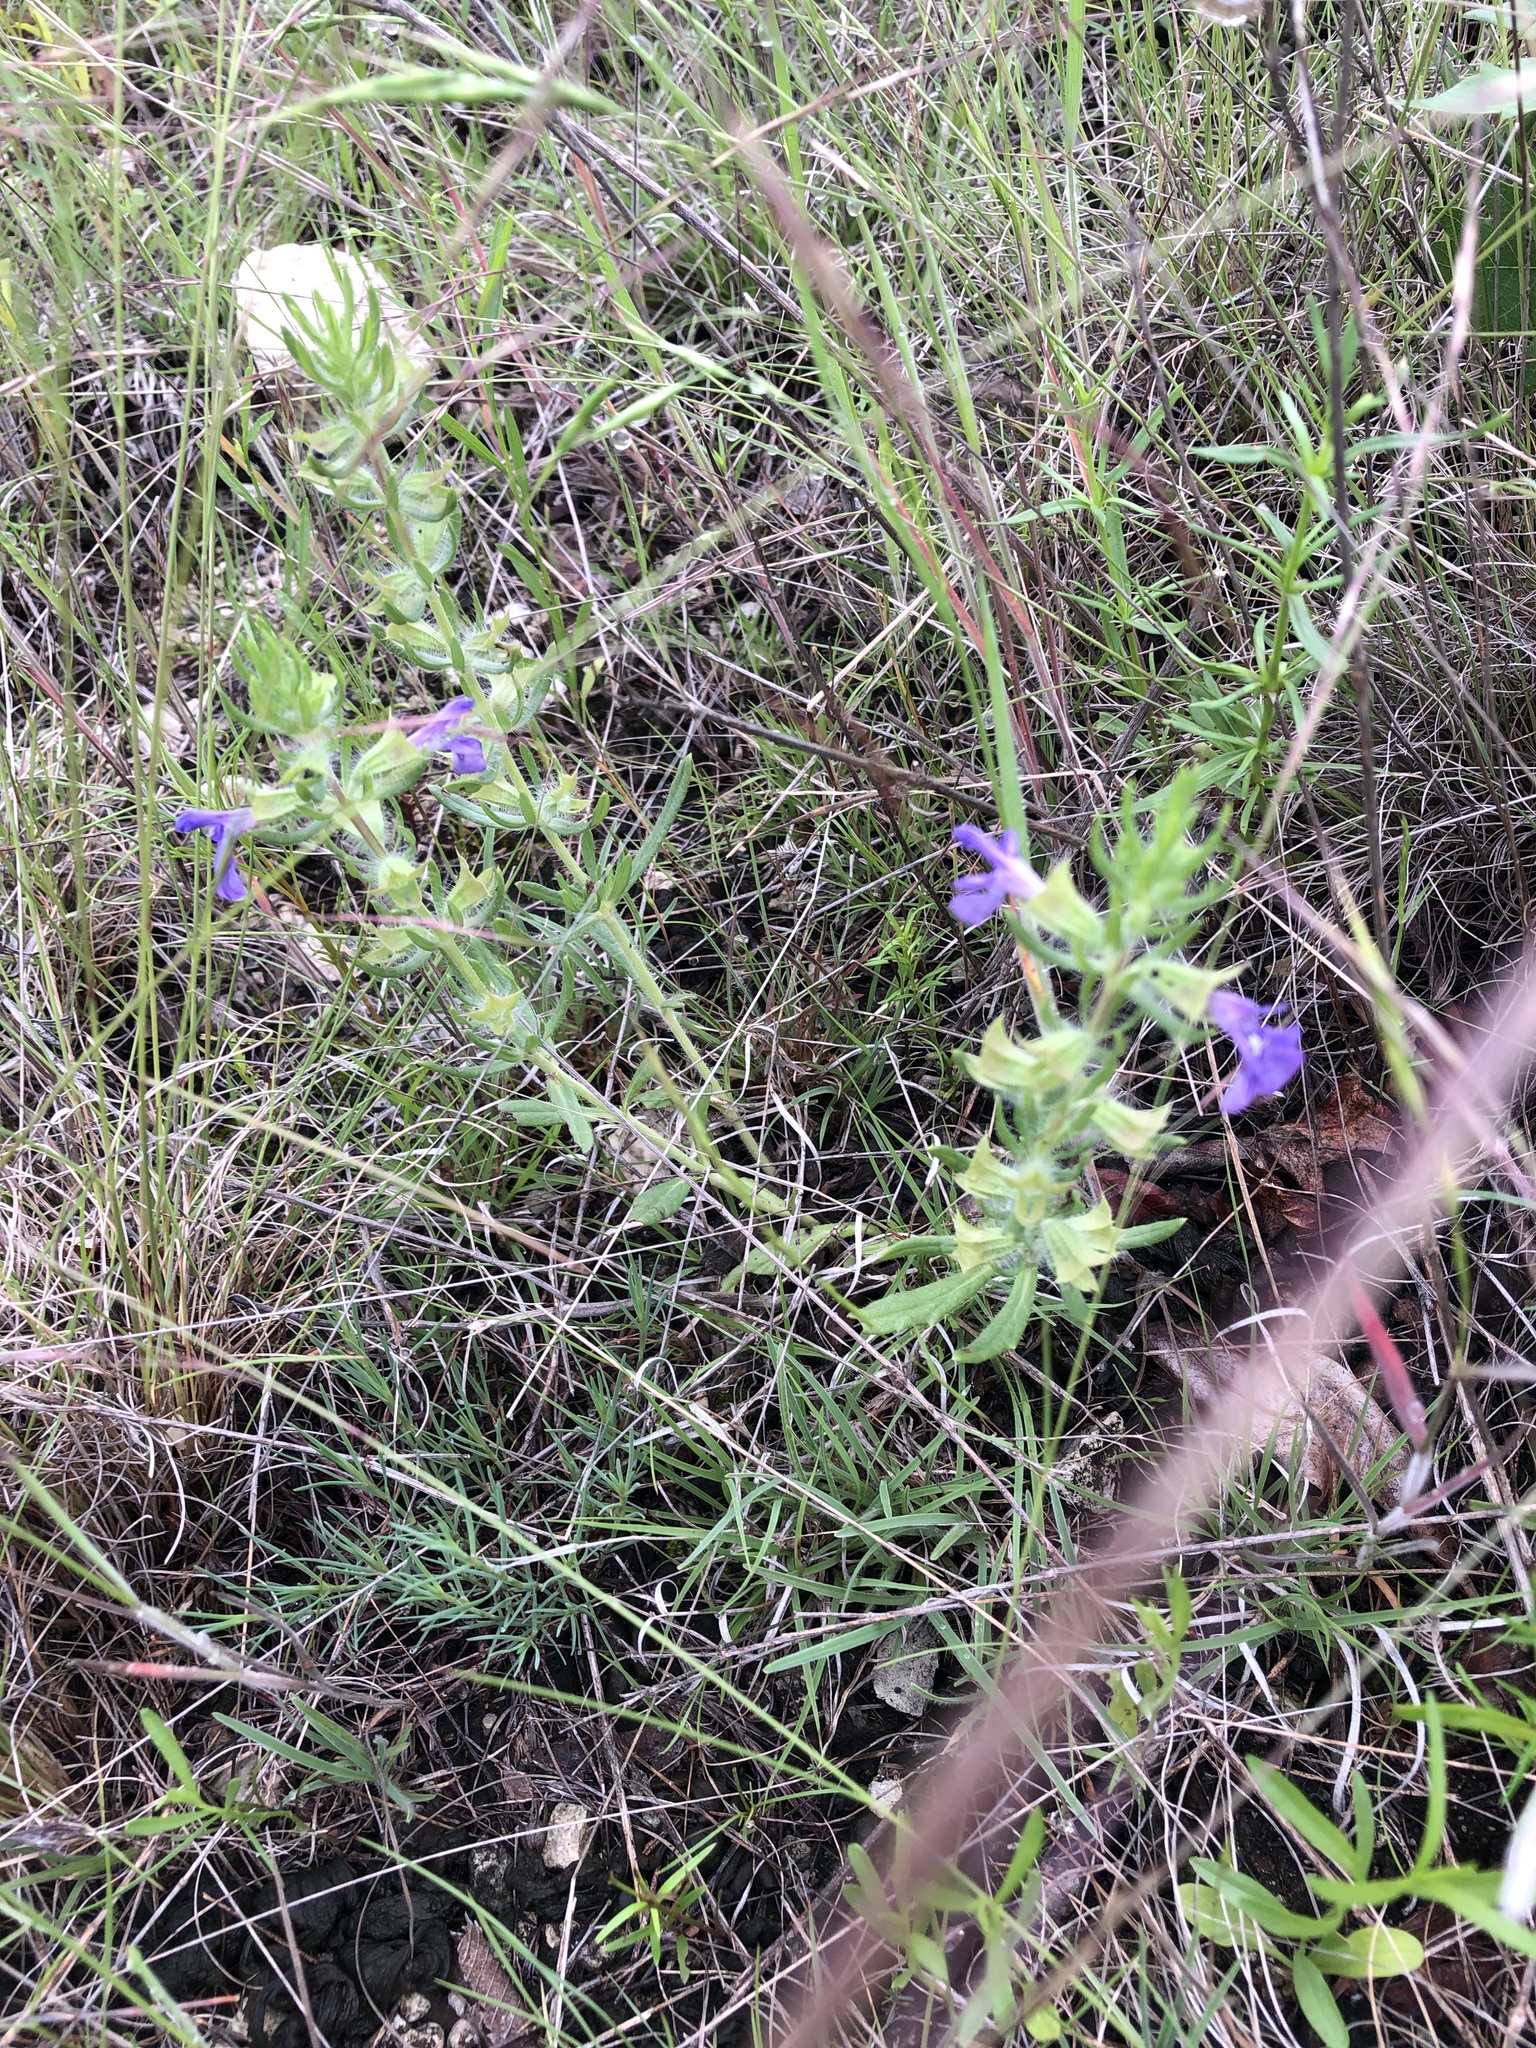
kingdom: Plantae
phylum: Tracheophyta
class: Magnoliopsida
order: Lamiales
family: Lamiaceae
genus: Salvia
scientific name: Salvia texana
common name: Texas sage
